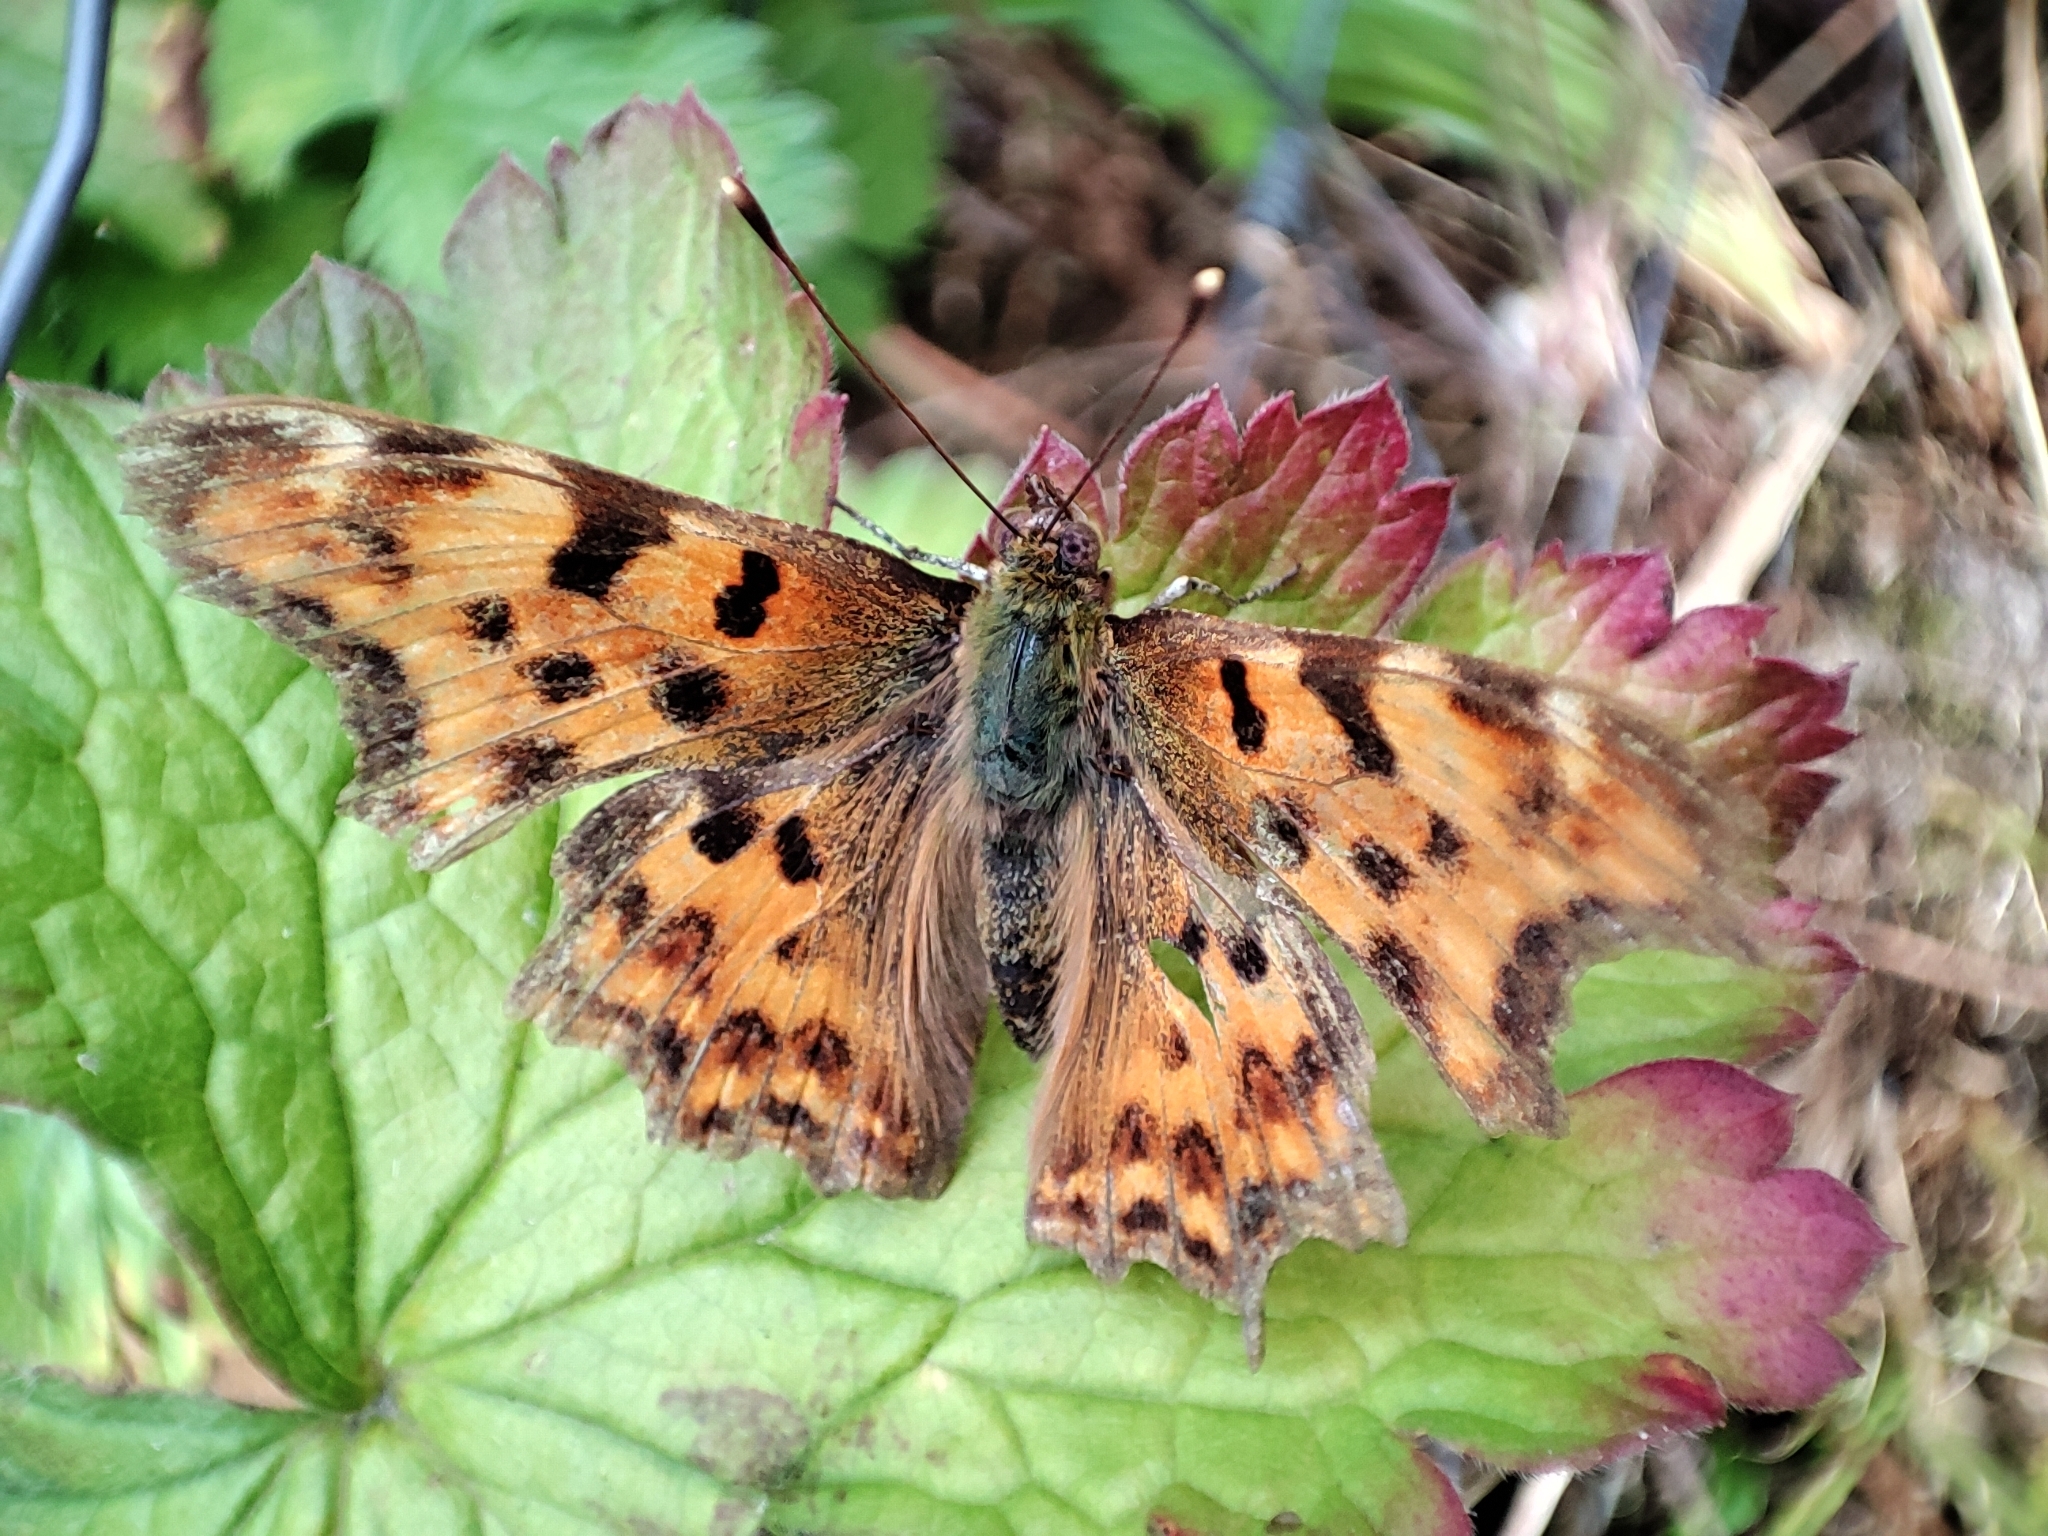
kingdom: Animalia
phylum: Arthropoda
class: Insecta
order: Lepidoptera
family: Nymphalidae
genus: Polygonia
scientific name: Polygonia c-album
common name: Comma
